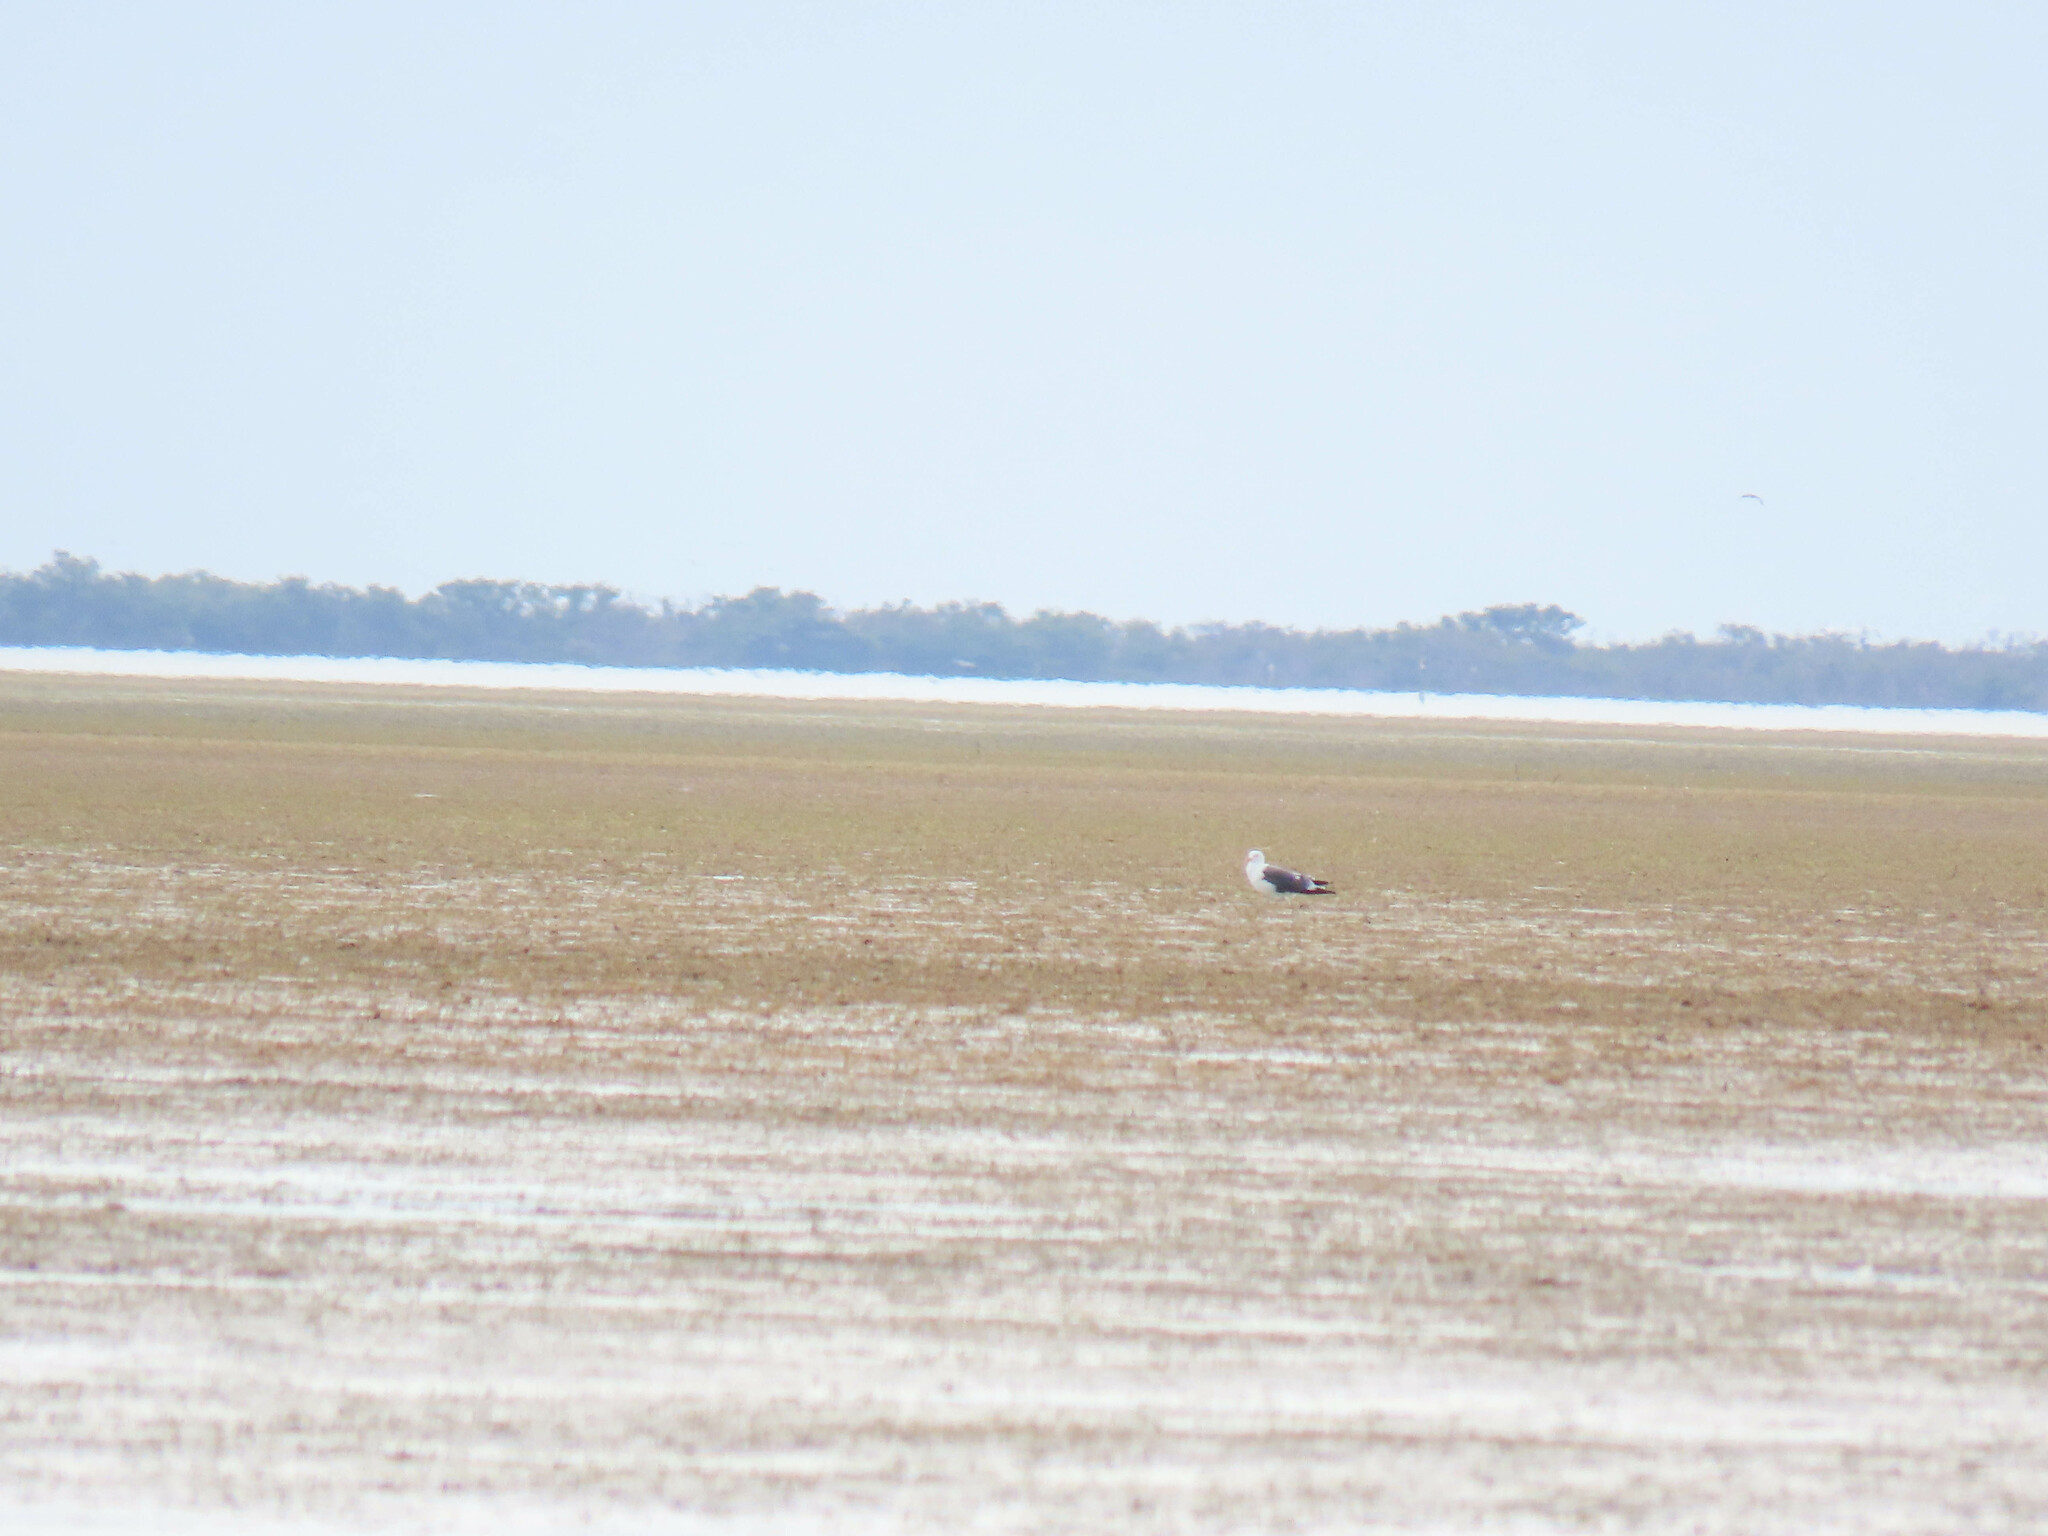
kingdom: Animalia
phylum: Chordata
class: Aves
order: Charadriiformes
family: Laridae
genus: Larus
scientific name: Larus fuscus
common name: Lesser black-backed gull
